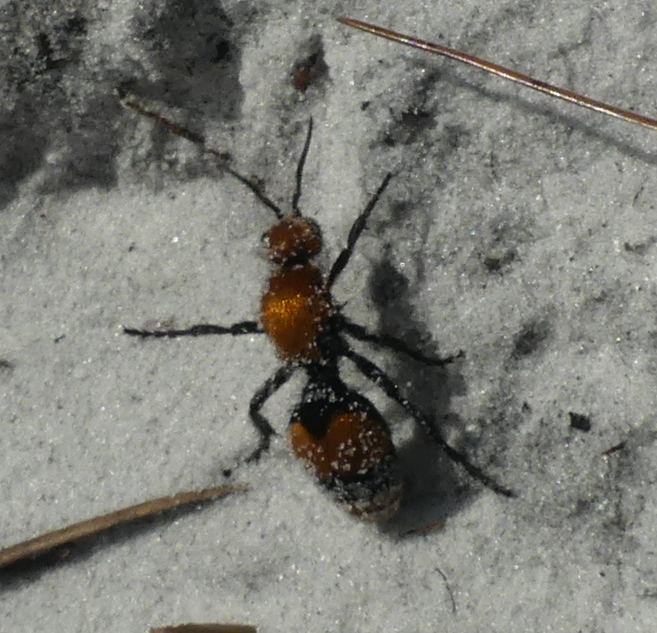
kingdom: Animalia
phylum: Arthropoda
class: Insecta
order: Hymenoptera
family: Mutillidae
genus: Dasymutilla
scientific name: Dasymutilla occidentalis
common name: Common eastern velvet ant
